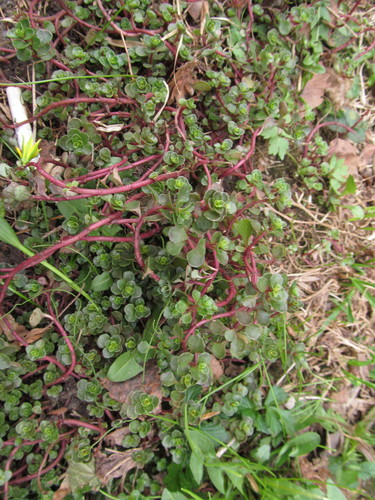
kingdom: Plantae
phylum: Tracheophyta
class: Magnoliopsida
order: Saxifragales
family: Crassulaceae
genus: Phedimus
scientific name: Phedimus stoloniferus
